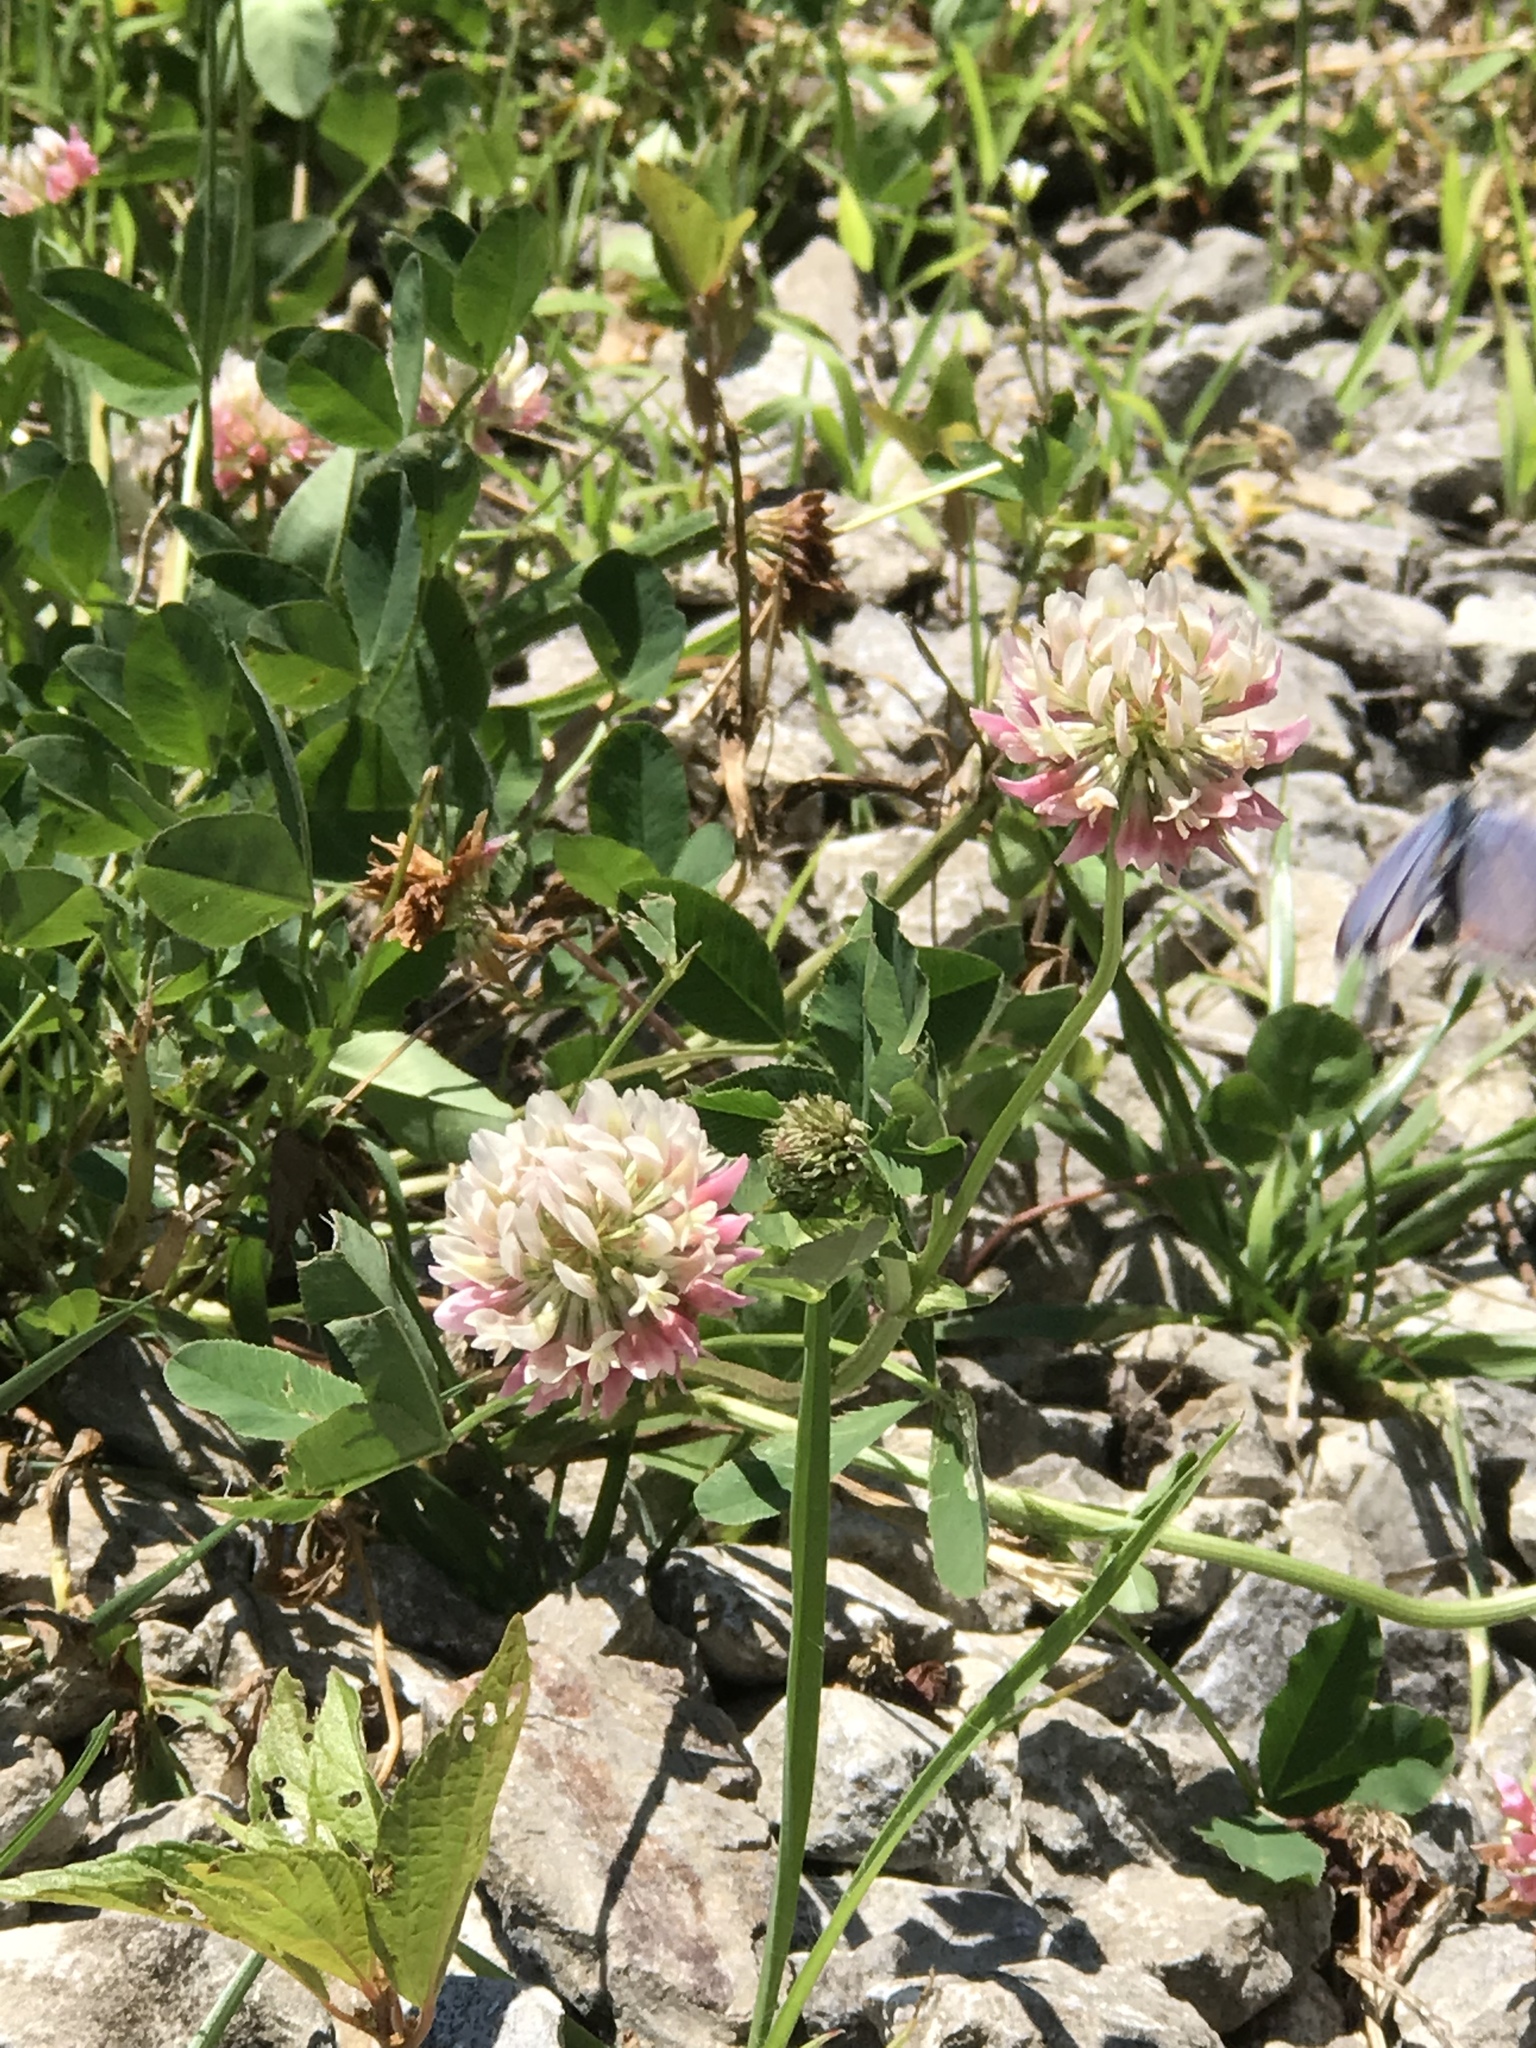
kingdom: Animalia
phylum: Arthropoda
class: Insecta
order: Lepidoptera
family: Lycaenidae
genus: Elkalyce
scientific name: Elkalyce comyntas
